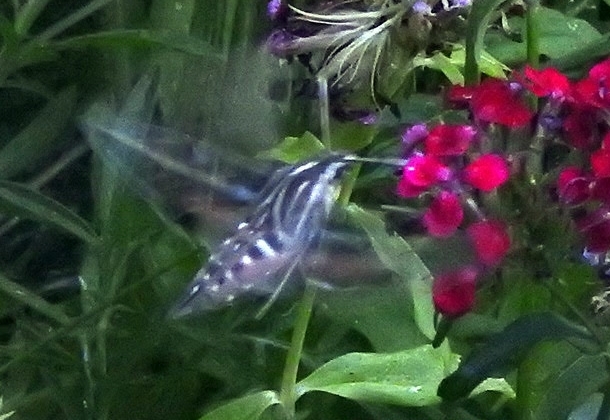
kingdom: Animalia
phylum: Arthropoda
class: Insecta
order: Lepidoptera
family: Sphingidae
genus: Hyles
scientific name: Hyles lineata
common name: White-lined sphinx
